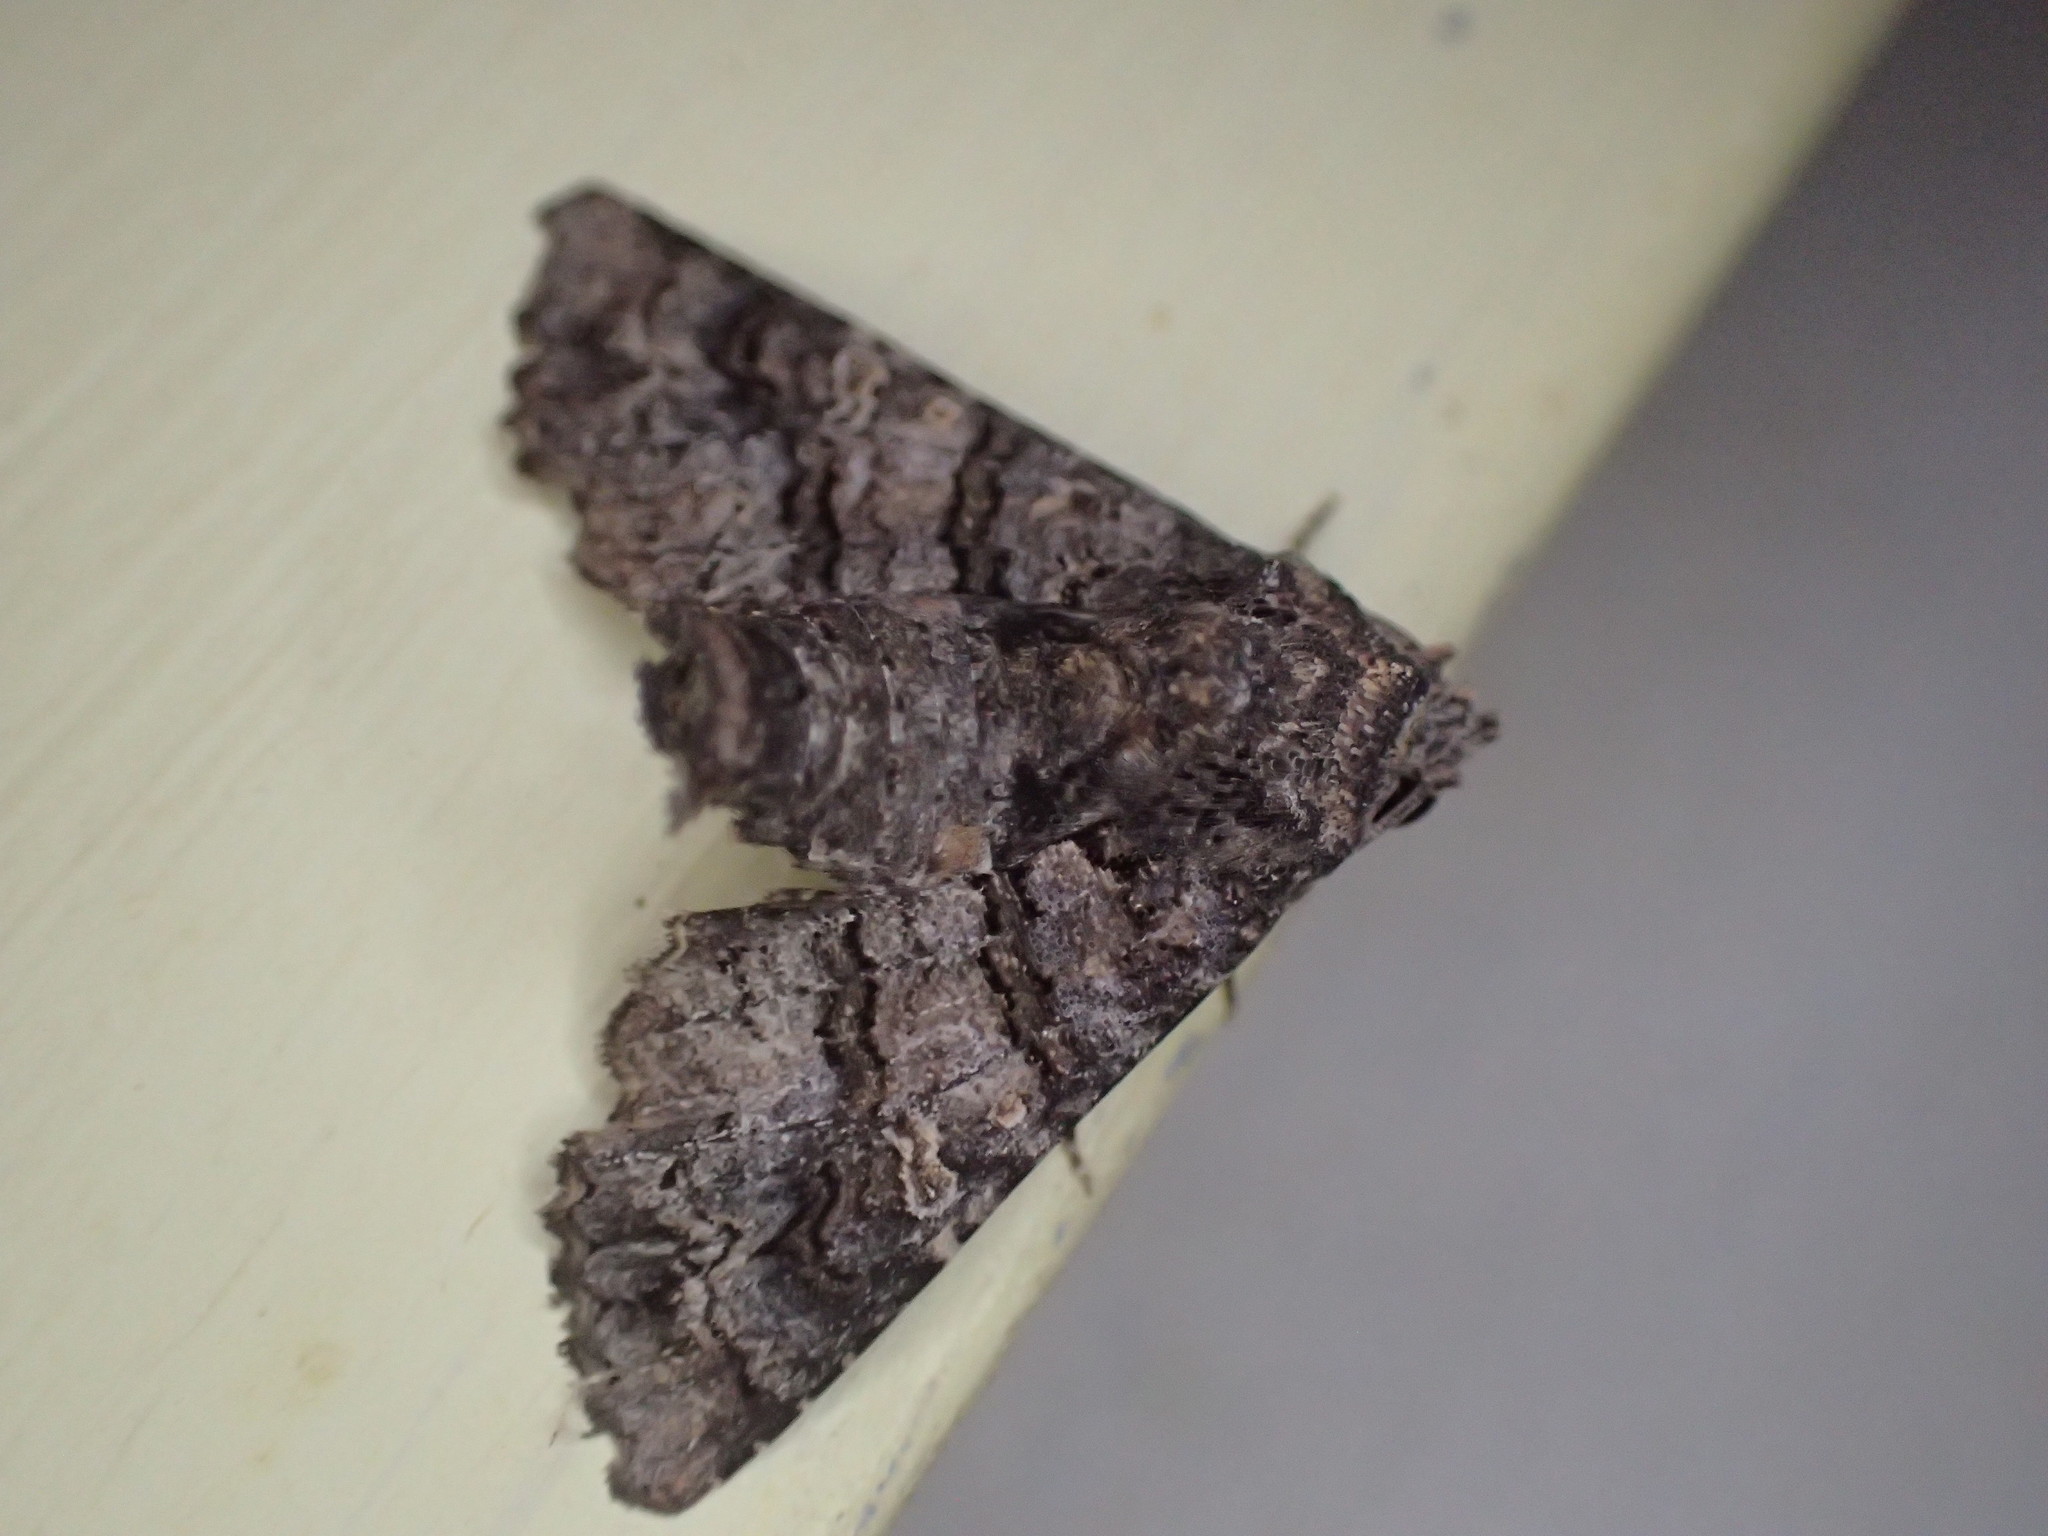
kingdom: Animalia
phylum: Arthropoda
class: Insecta
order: Lepidoptera
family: Euteliidae
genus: Pataeta
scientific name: Pataeta carbo
